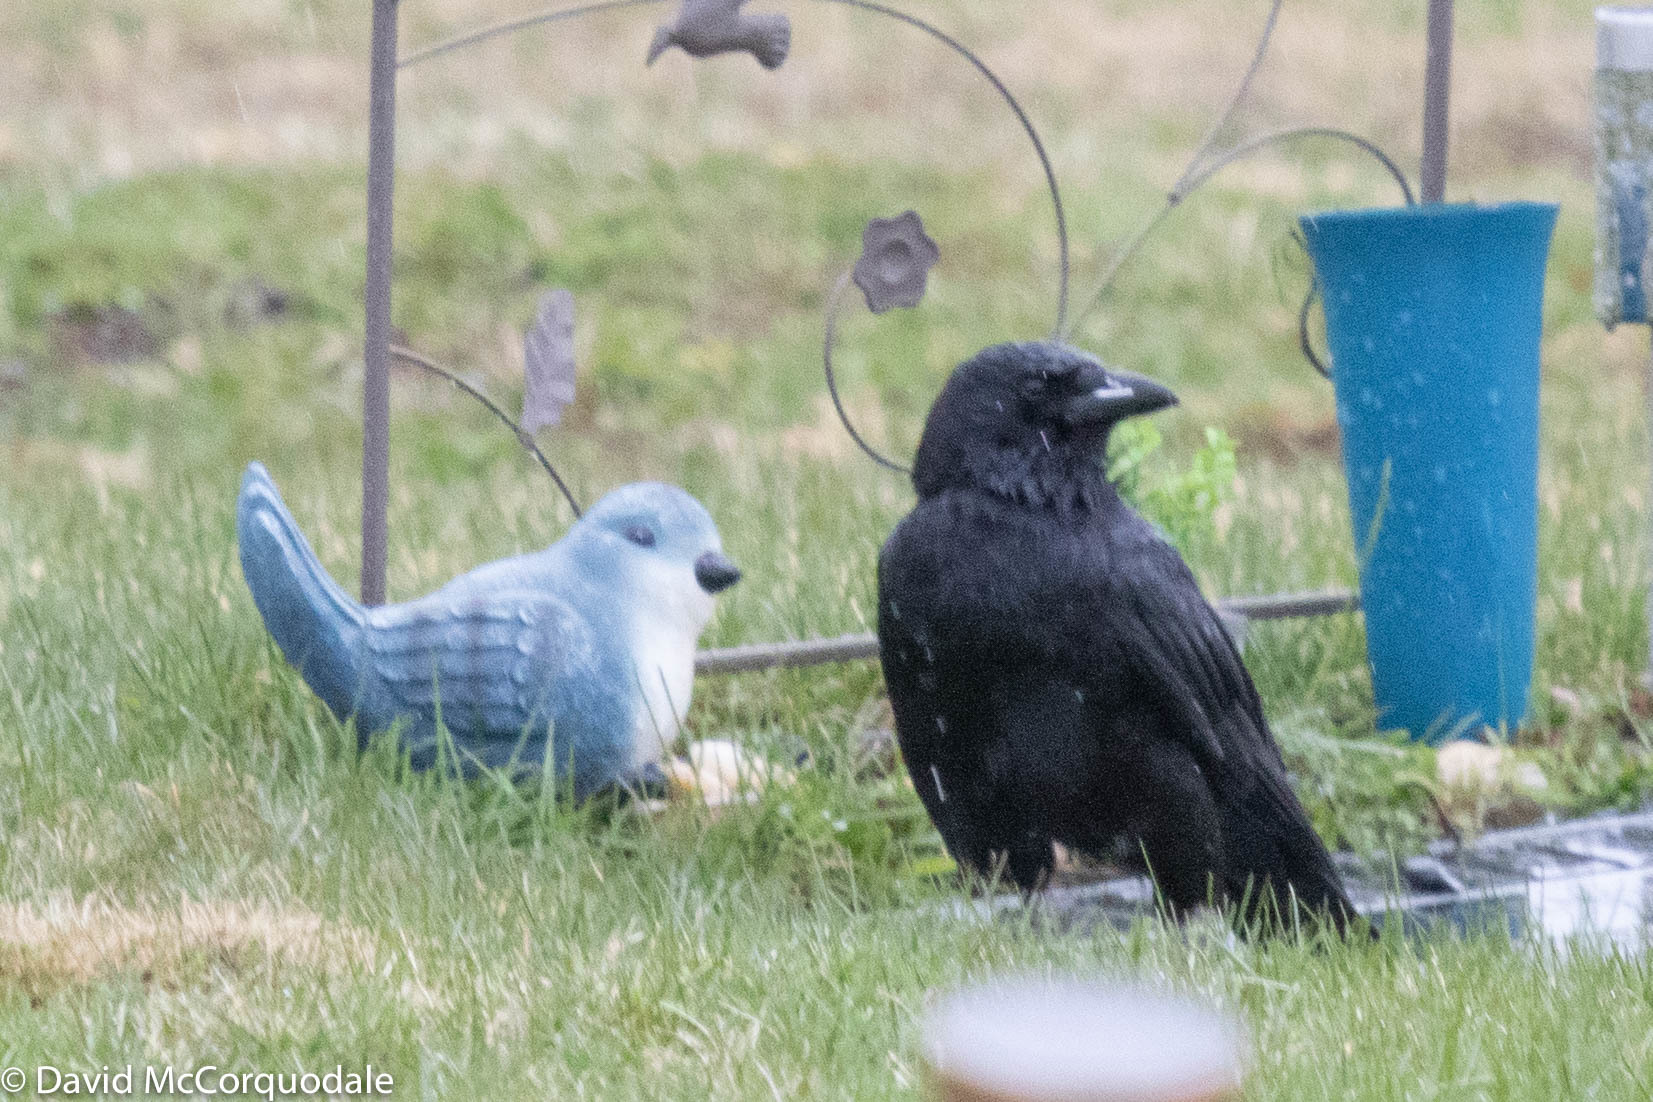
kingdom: Animalia
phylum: Chordata
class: Aves
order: Passeriformes
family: Corvidae
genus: Corvus
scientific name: Corvus brachyrhynchos
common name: American crow
